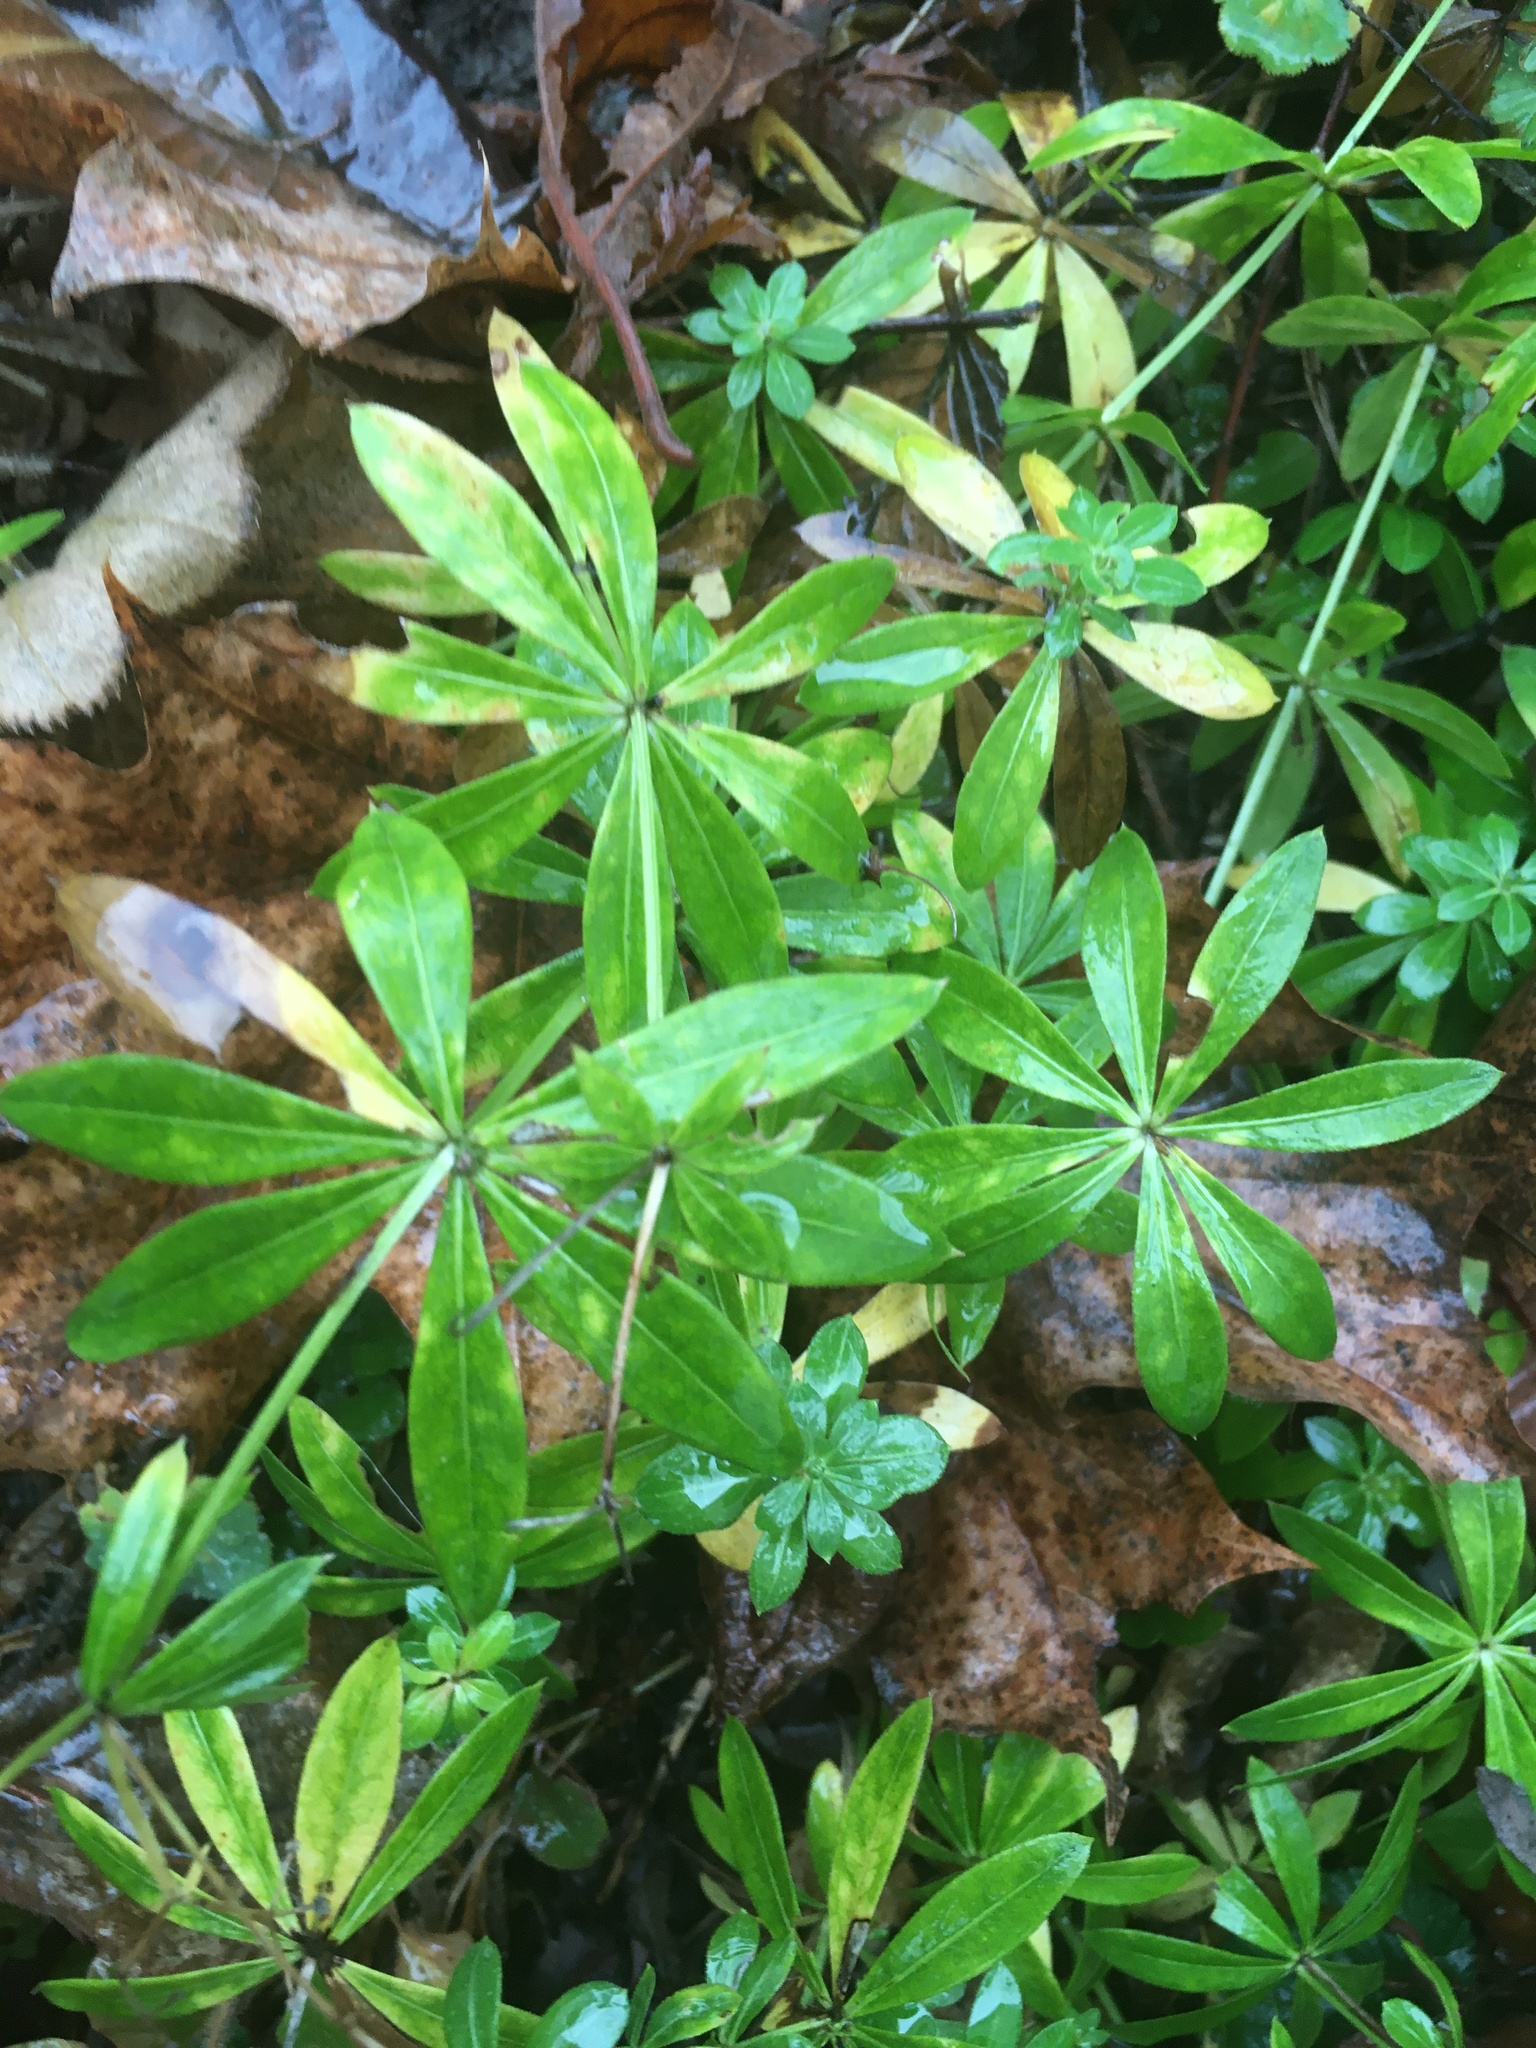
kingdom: Plantae
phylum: Tracheophyta
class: Magnoliopsida
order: Gentianales
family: Rubiaceae
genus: Galium
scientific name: Galium odoratum
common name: Sweet woodruff
